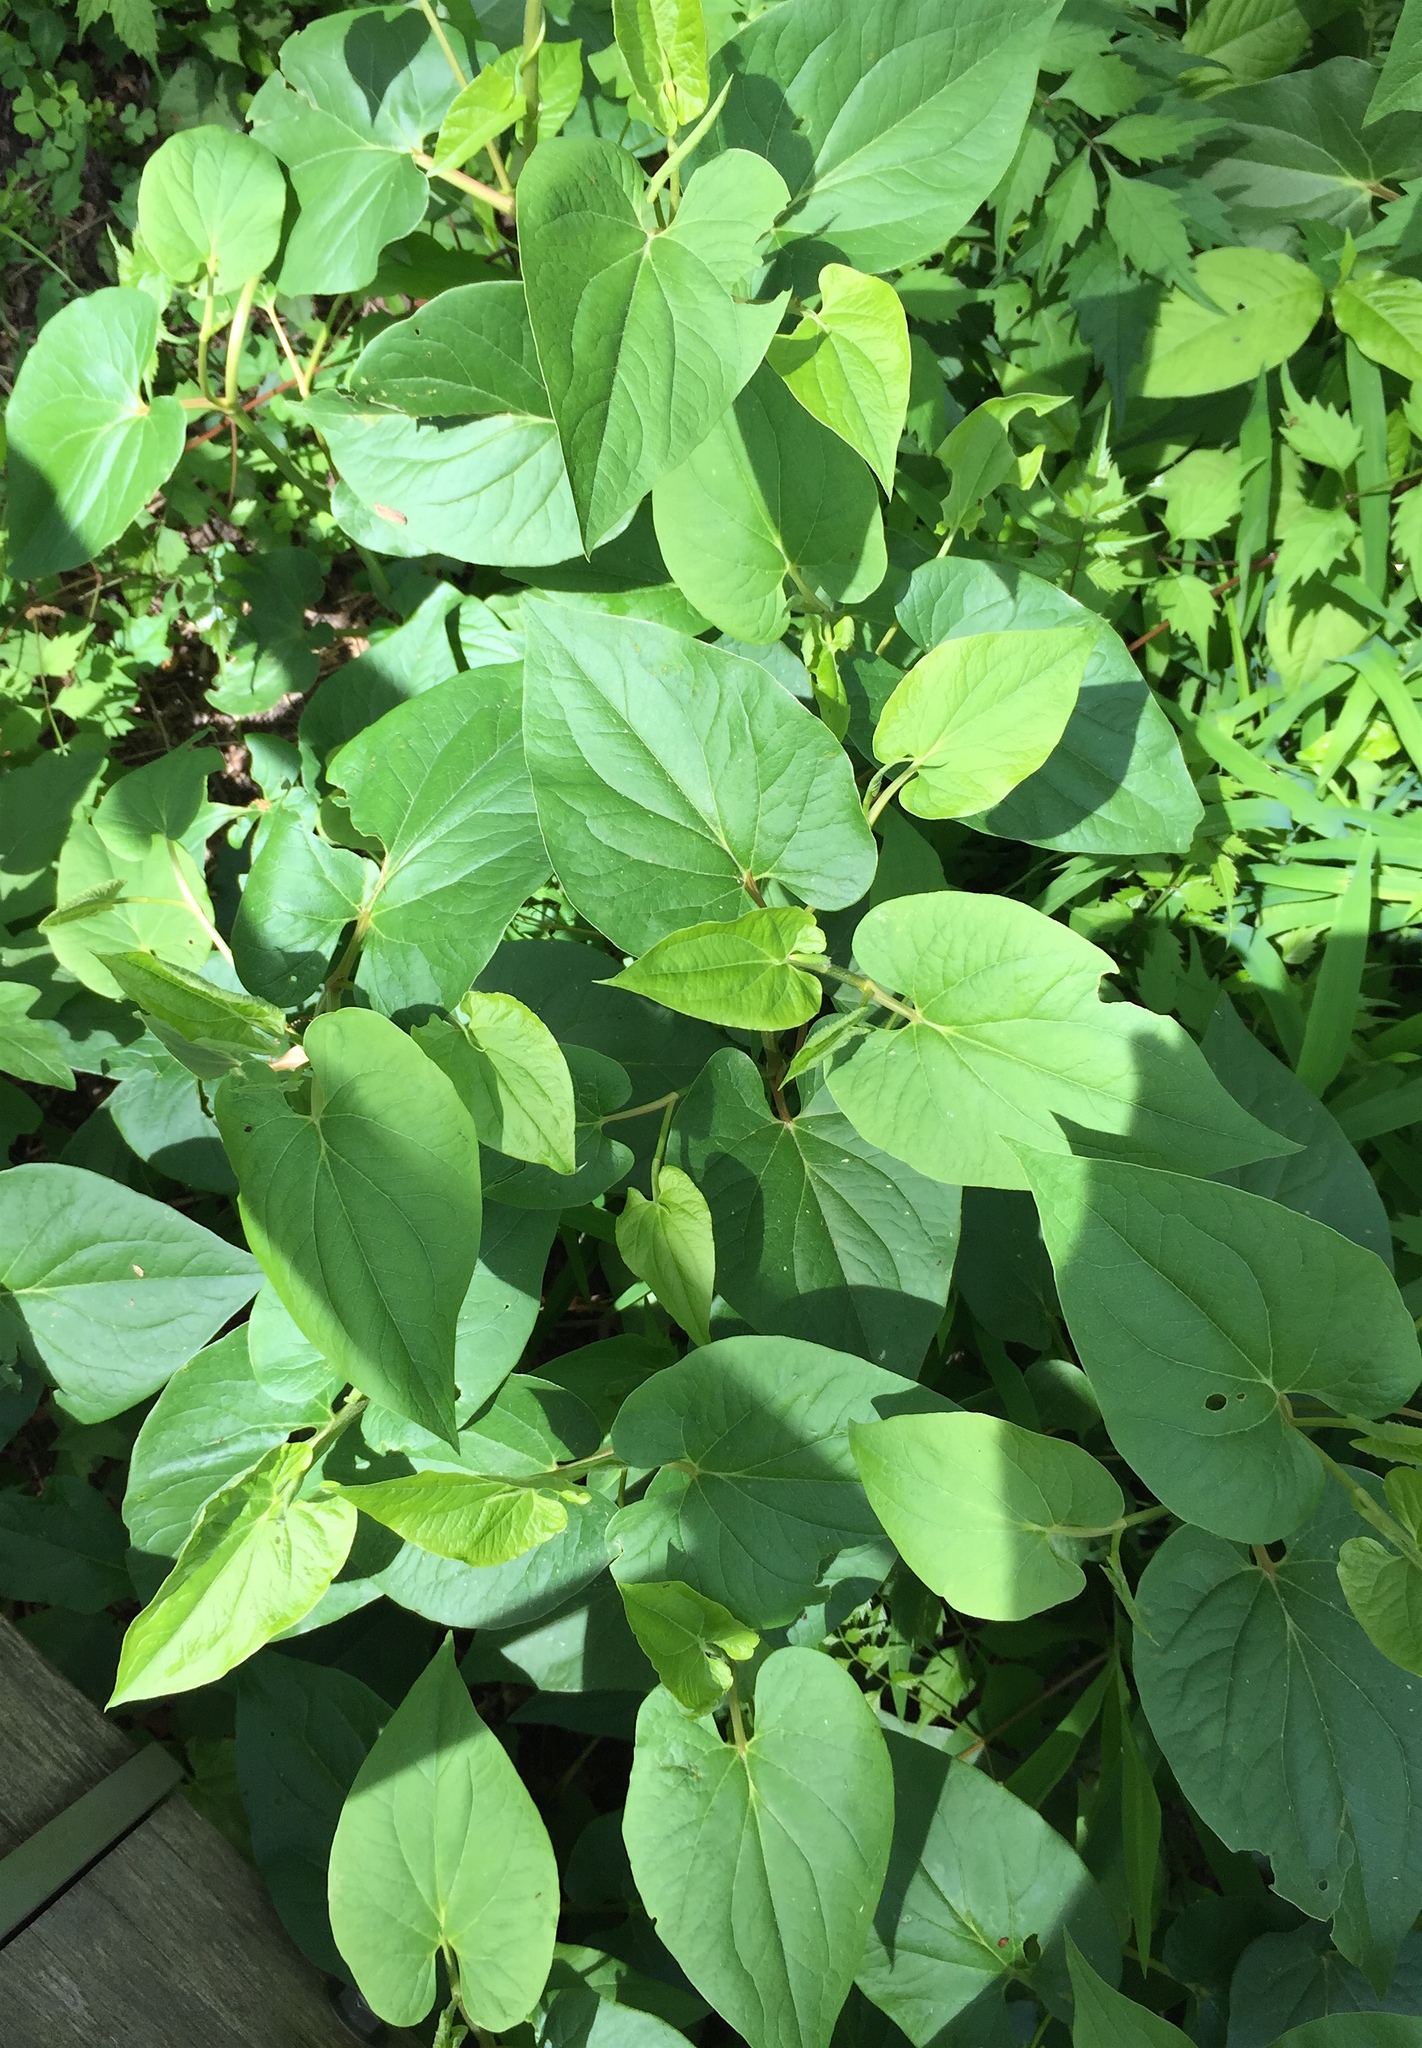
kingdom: Plantae
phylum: Tracheophyta
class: Magnoliopsida
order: Piperales
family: Saururaceae
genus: Saururus
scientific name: Saururus cernuus
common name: Lizard's-tail
